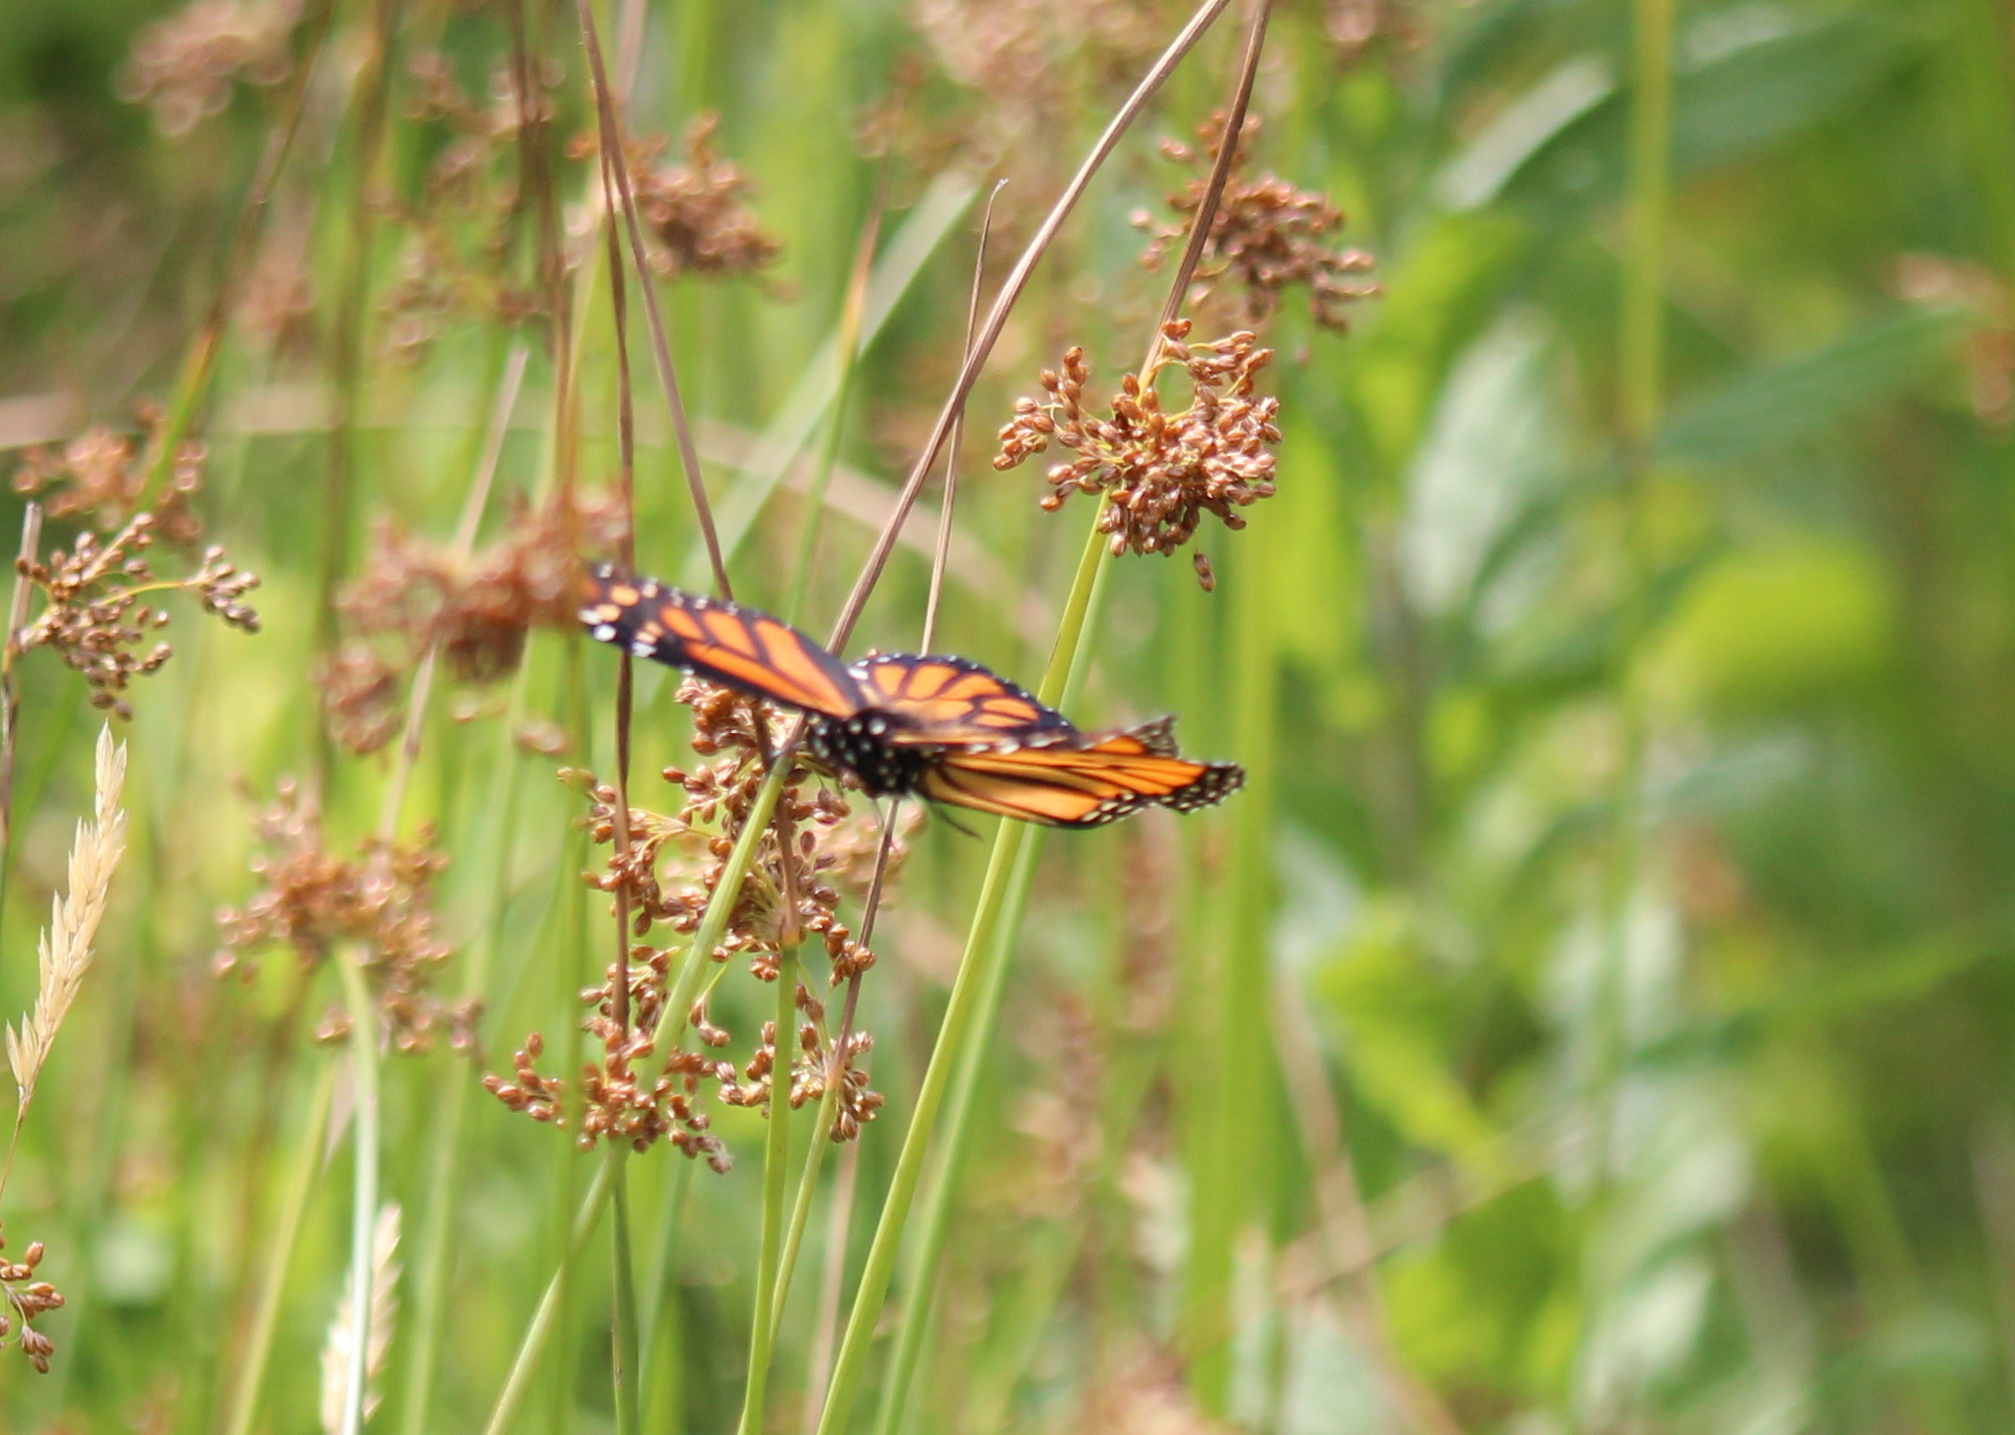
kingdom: Animalia
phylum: Arthropoda
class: Insecta
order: Lepidoptera
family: Nymphalidae
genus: Danaus
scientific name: Danaus plexippus
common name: Monarch
